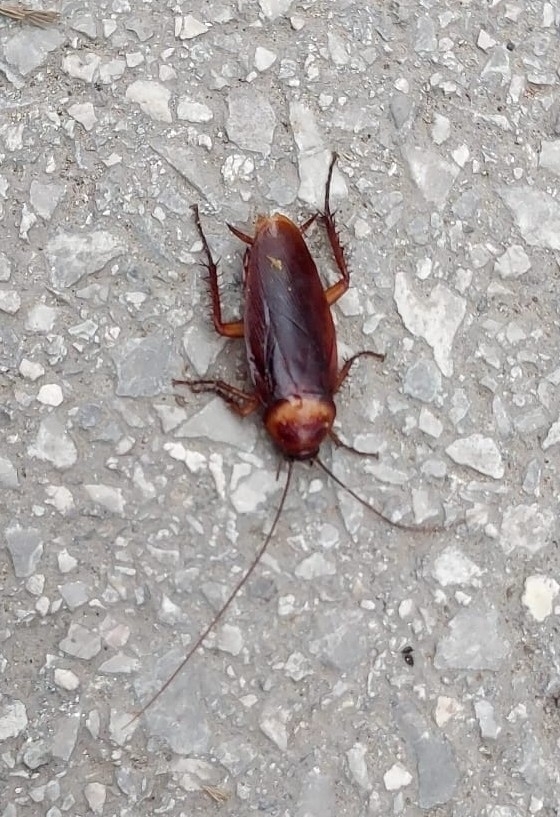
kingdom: Animalia
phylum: Arthropoda
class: Insecta
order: Blattodea
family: Blattidae
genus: Periplaneta
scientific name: Periplaneta americana
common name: American cockroach
